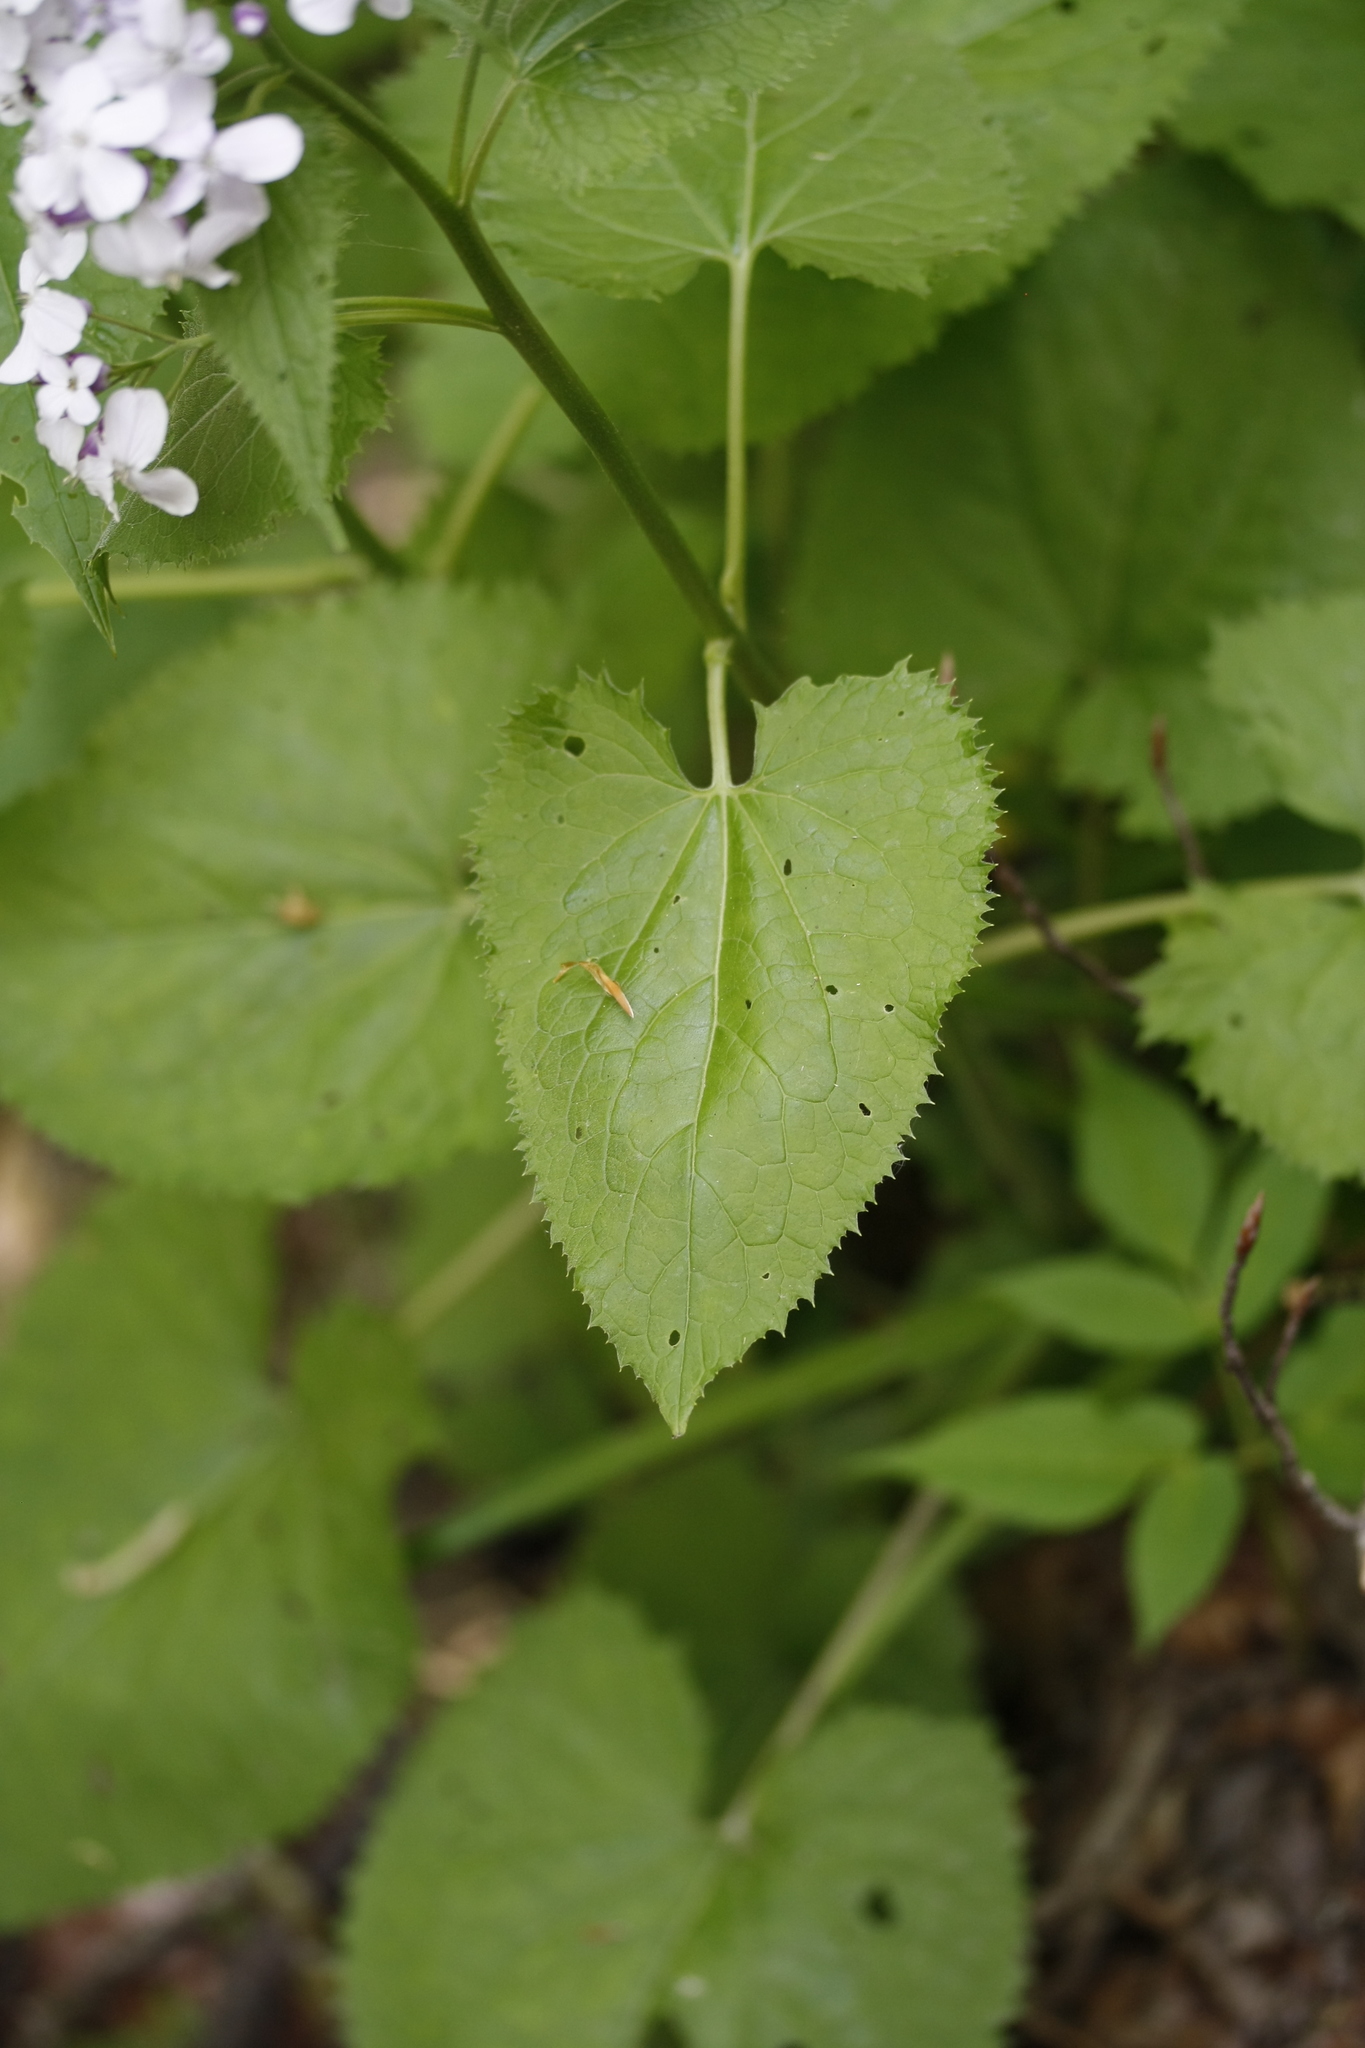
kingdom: Plantae
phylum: Tracheophyta
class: Magnoliopsida
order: Brassicales
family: Brassicaceae
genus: Lunaria
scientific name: Lunaria rediviva
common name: Perennial honesty
